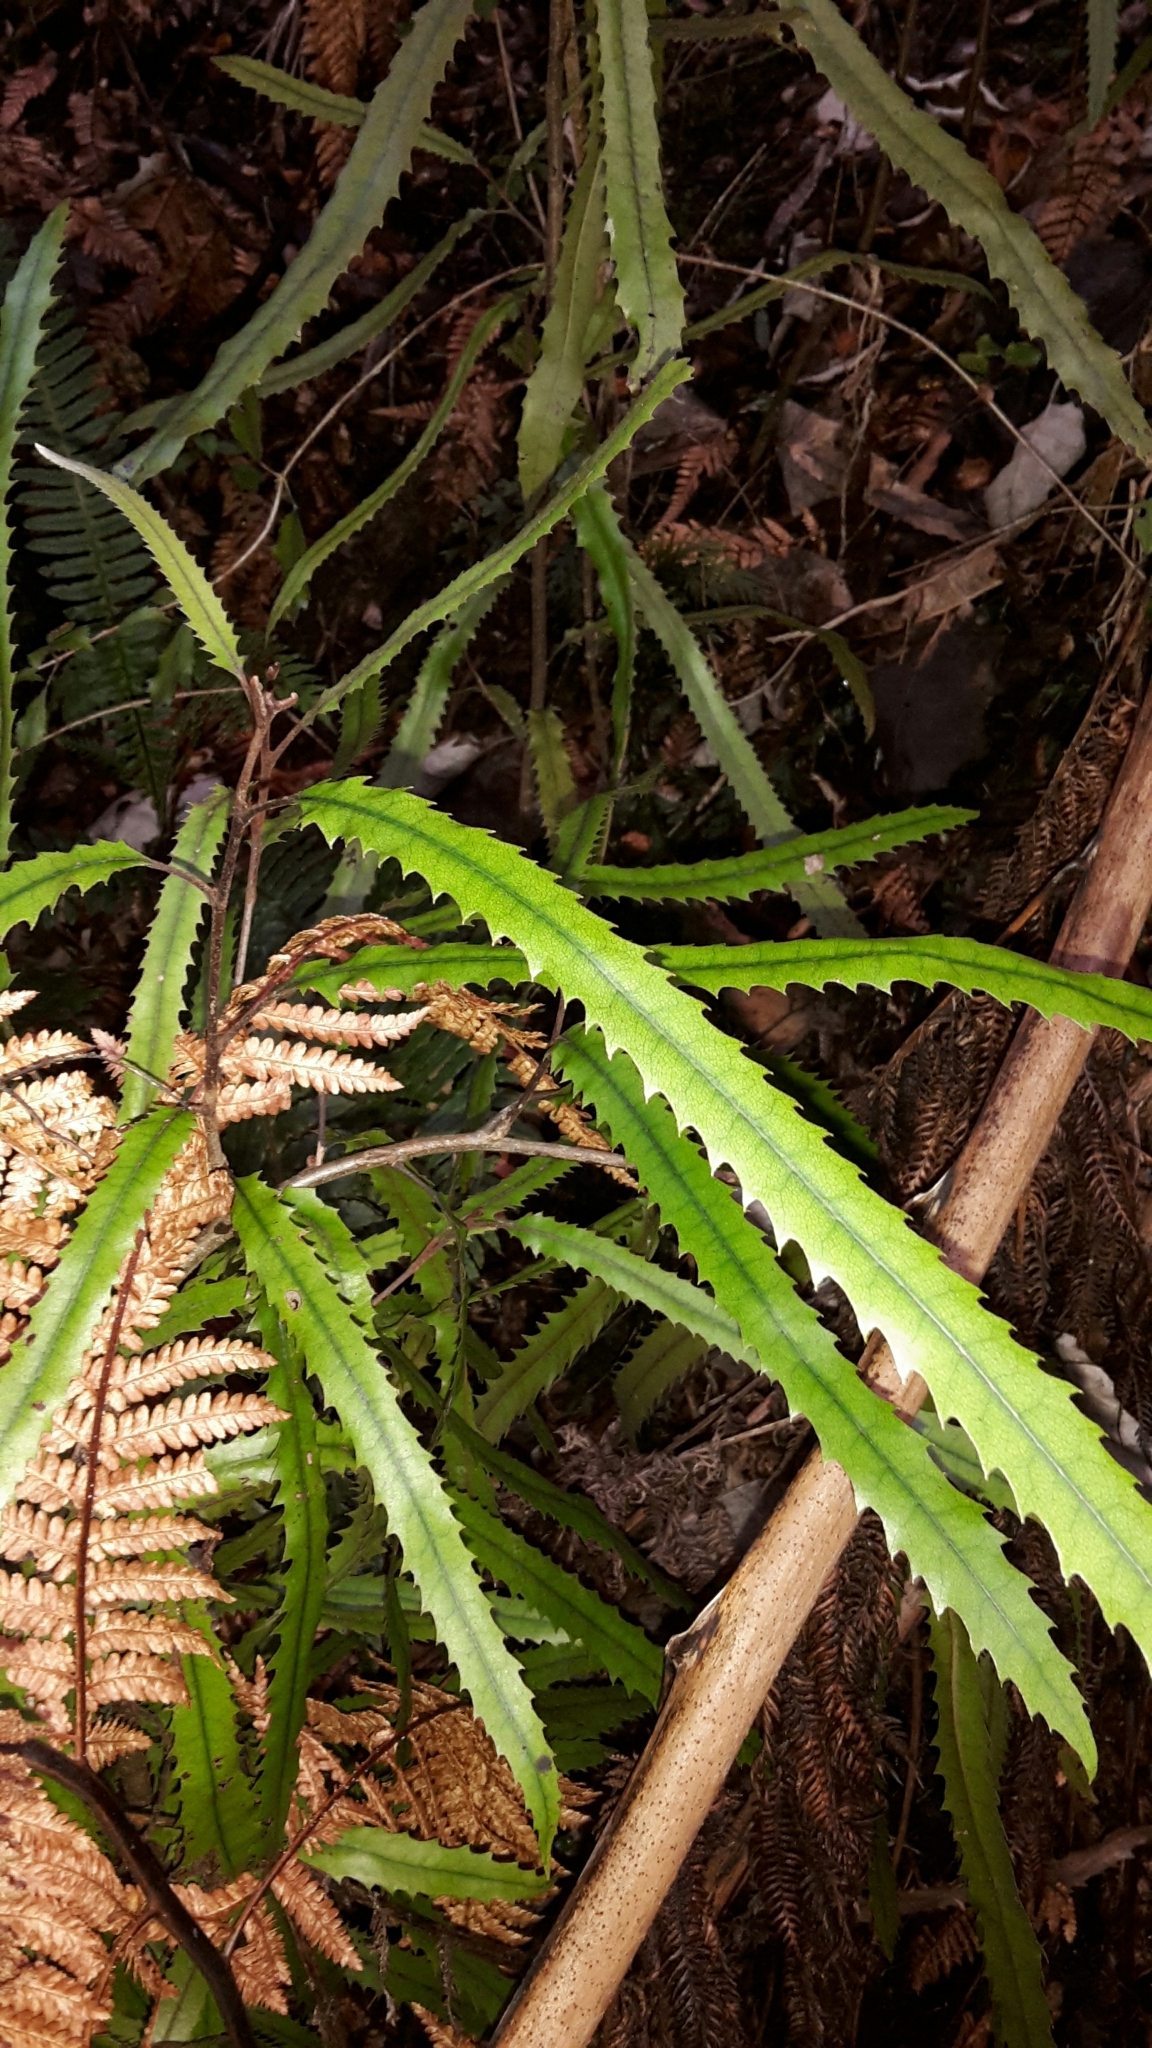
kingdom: Plantae
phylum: Tracheophyta
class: Magnoliopsida
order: Proteales
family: Proteaceae
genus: Knightia
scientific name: Knightia excelsa
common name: New zealand-honeysuckle
